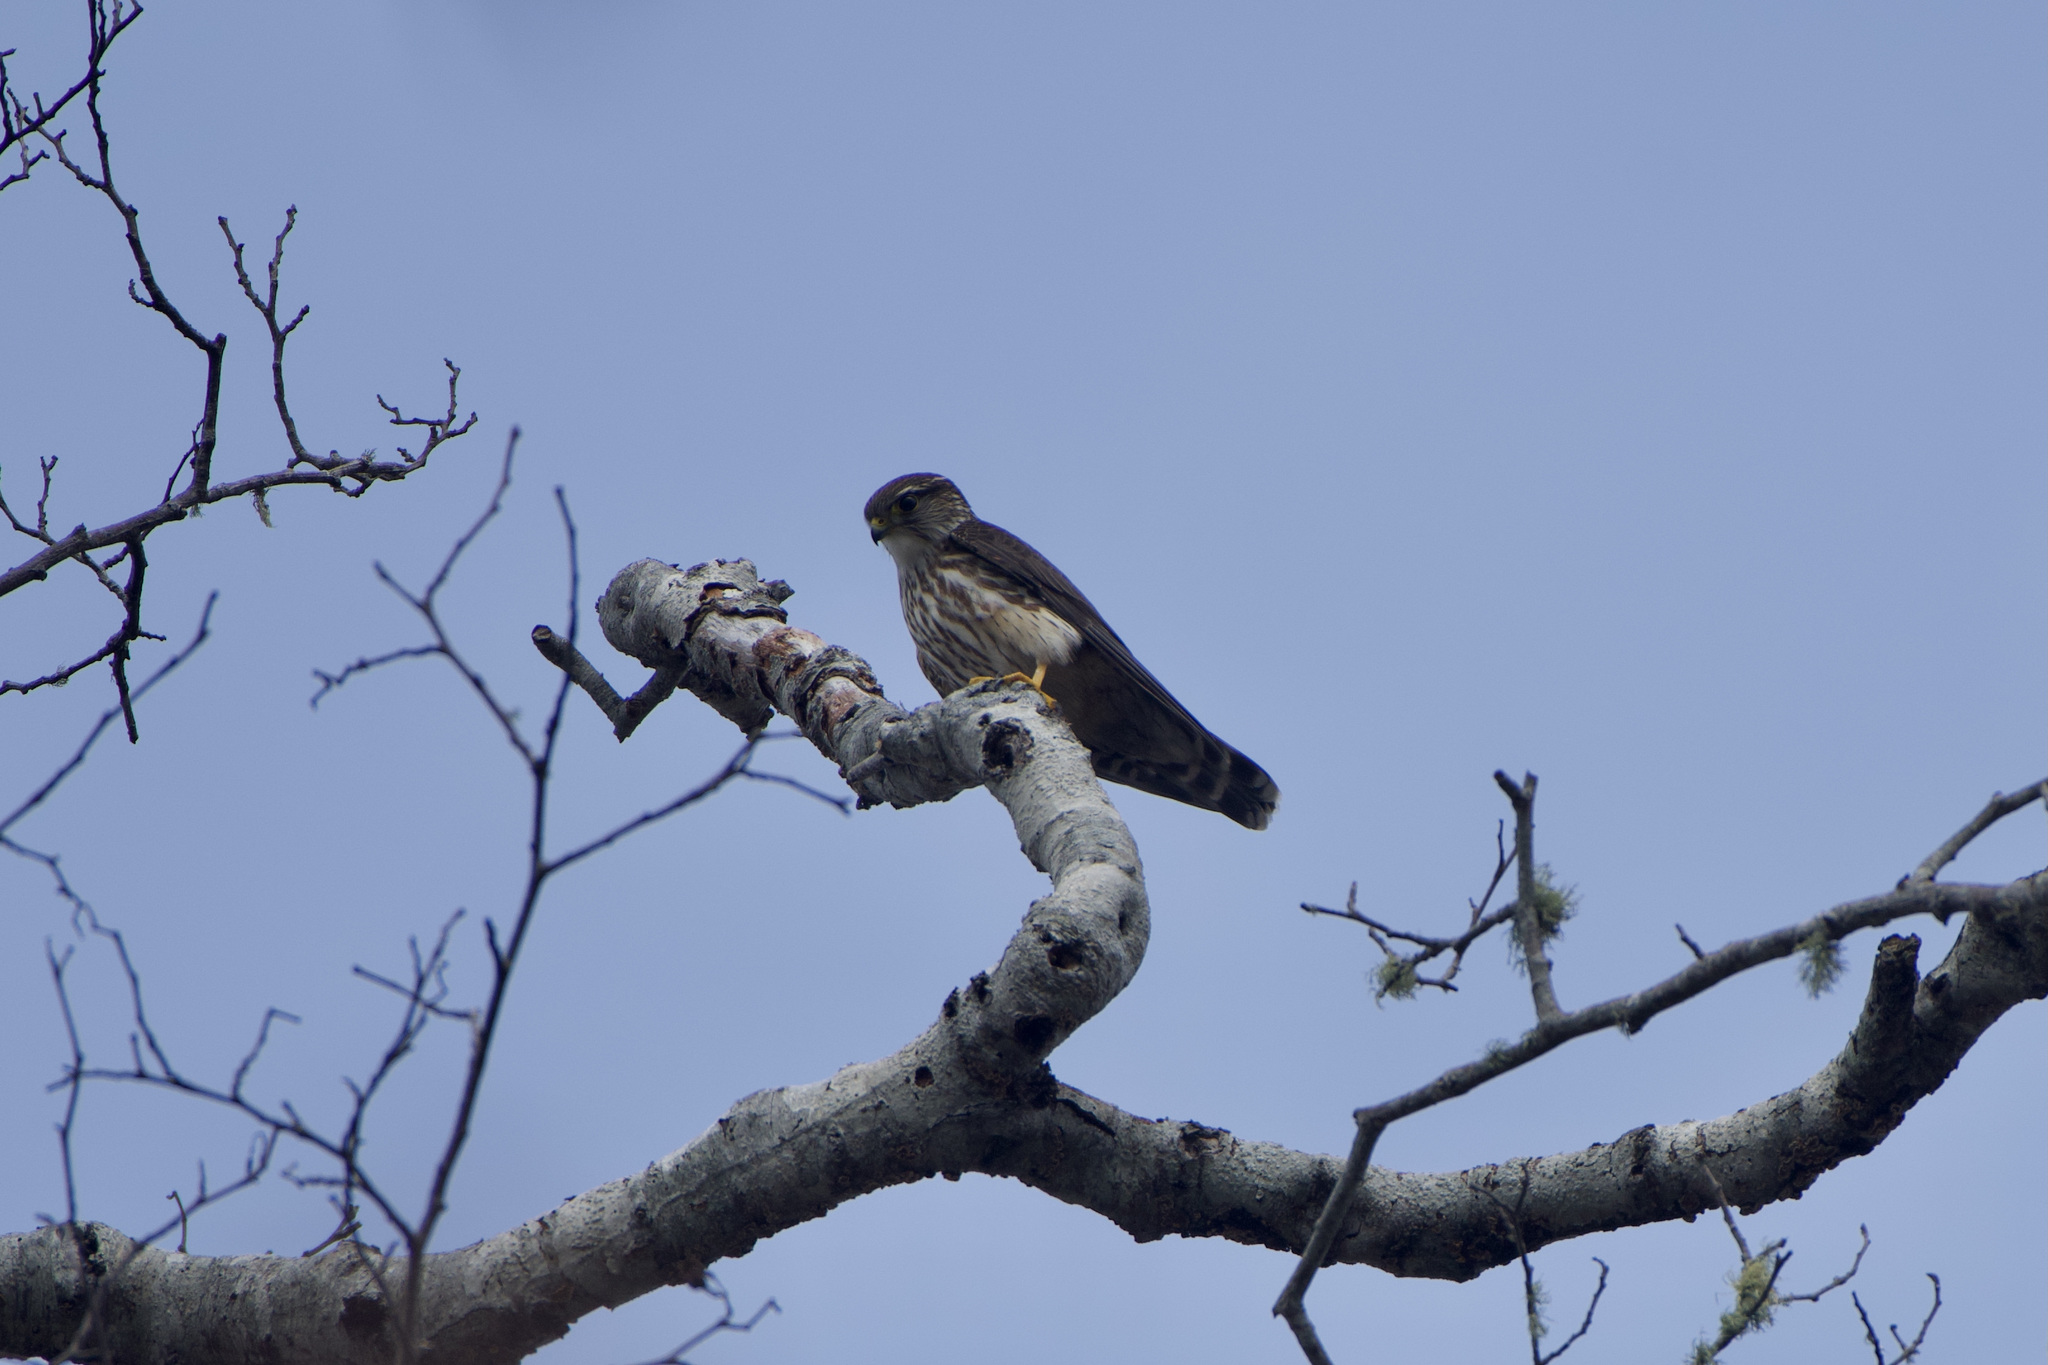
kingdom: Animalia
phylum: Chordata
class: Aves
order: Falconiformes
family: Falconidae
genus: Falco
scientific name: Falco columbarius
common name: Merlin
